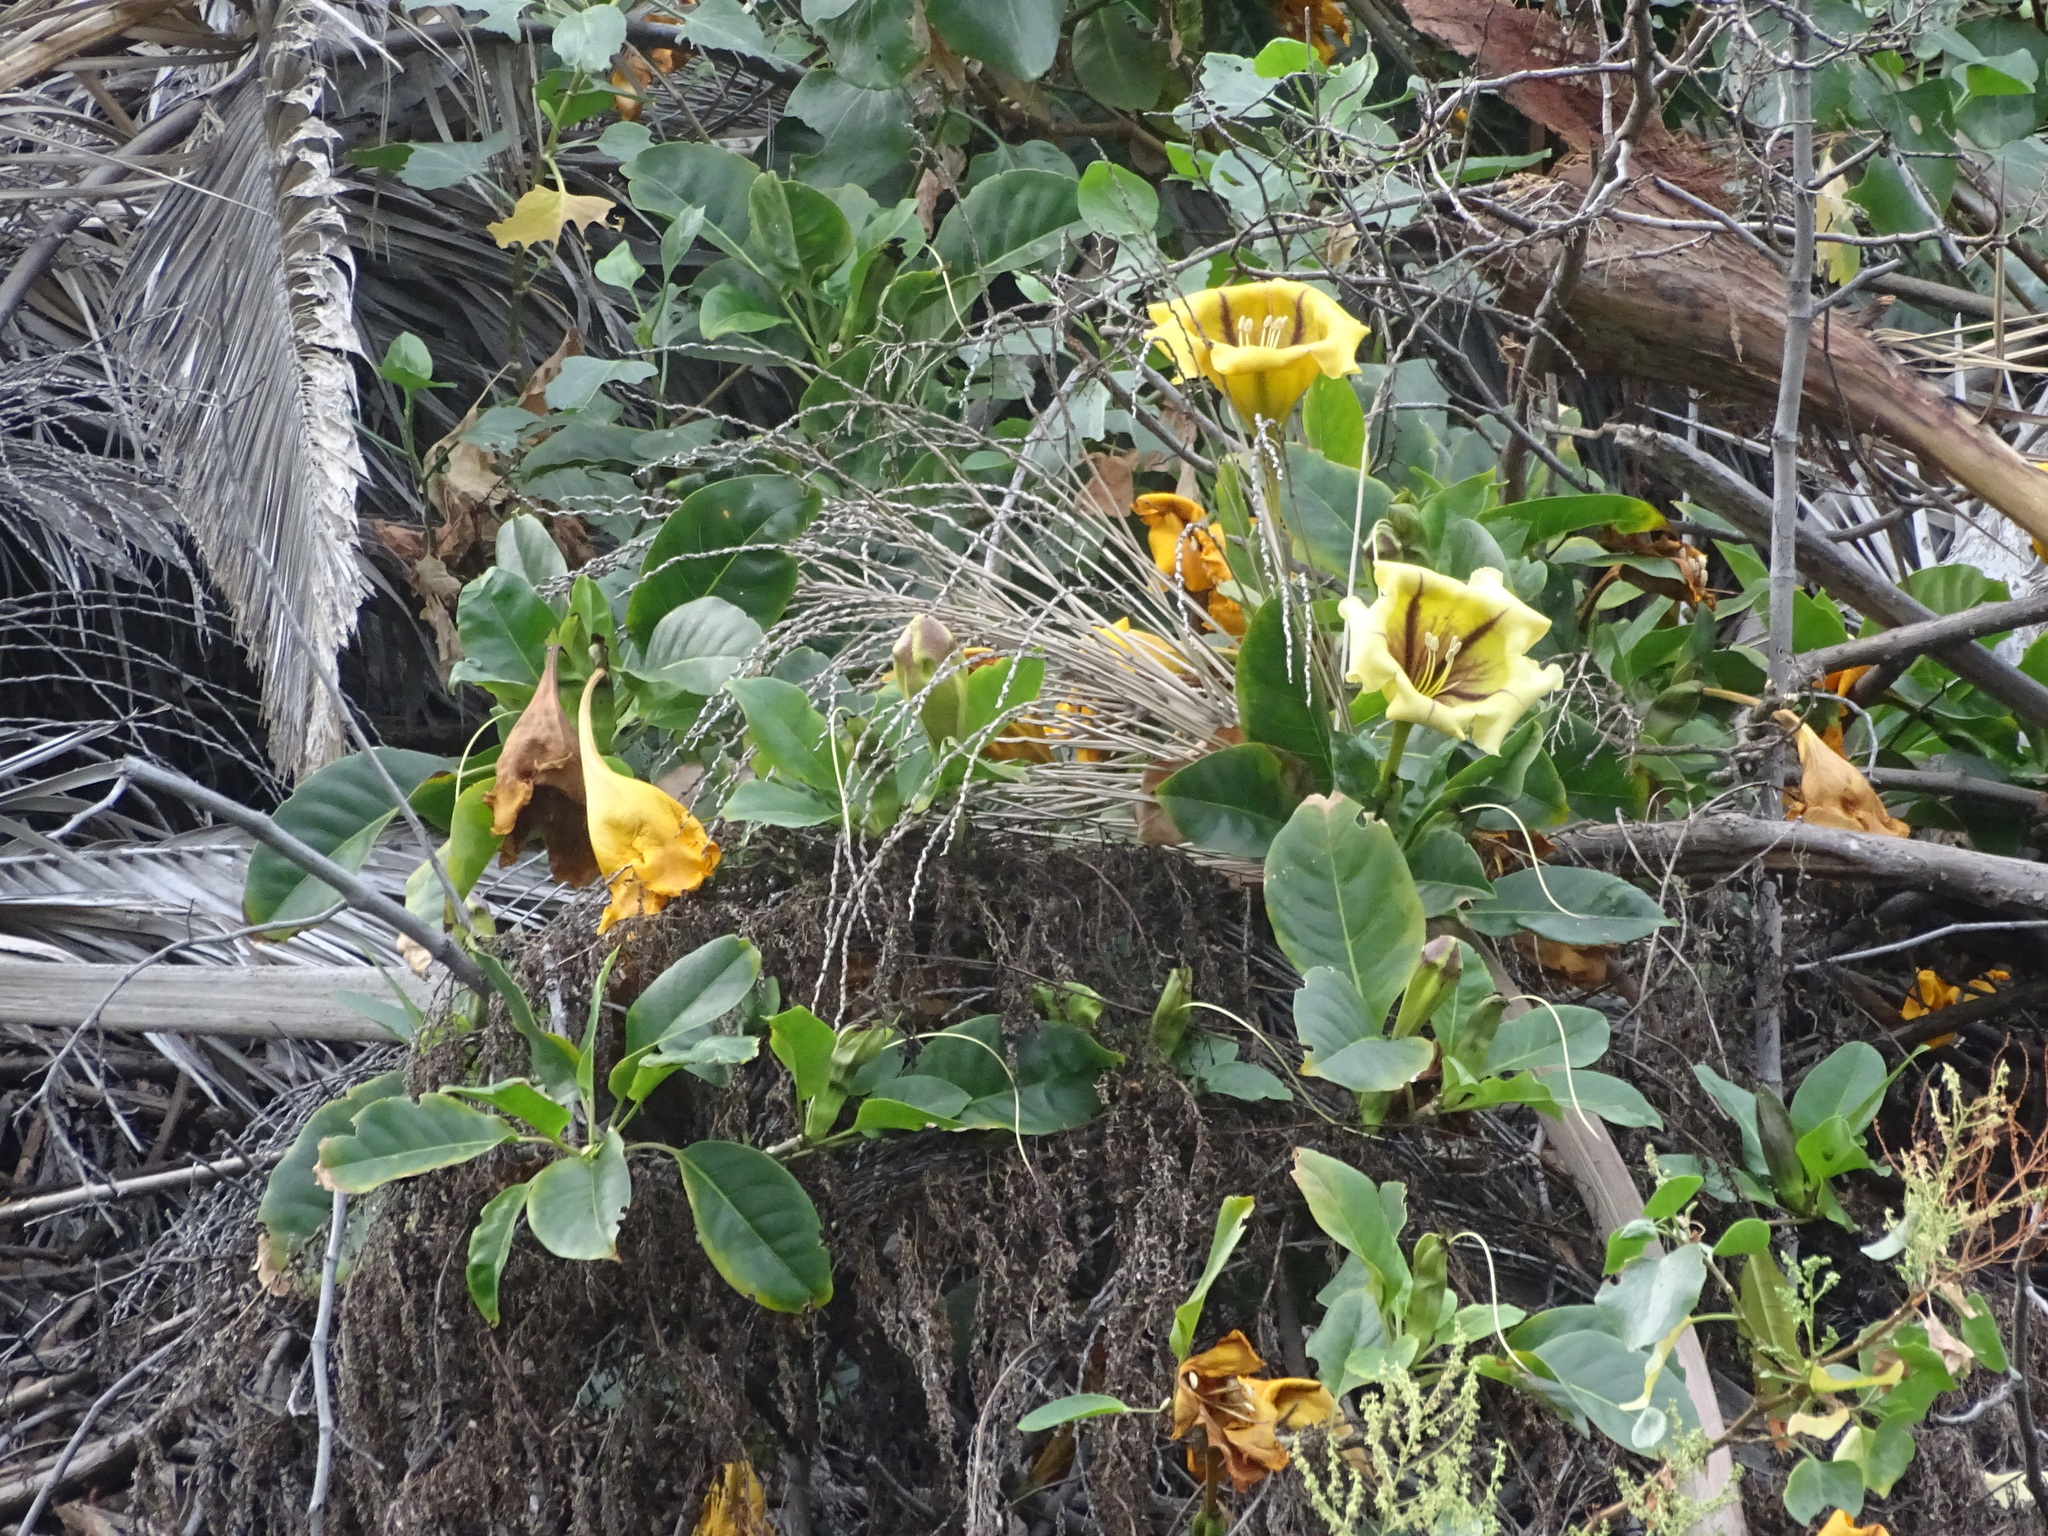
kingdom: Plantae
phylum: Tracheophyta
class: Magnoliopsida
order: Solanales
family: Solanaceae
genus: Solandra
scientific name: Solandra maxima
